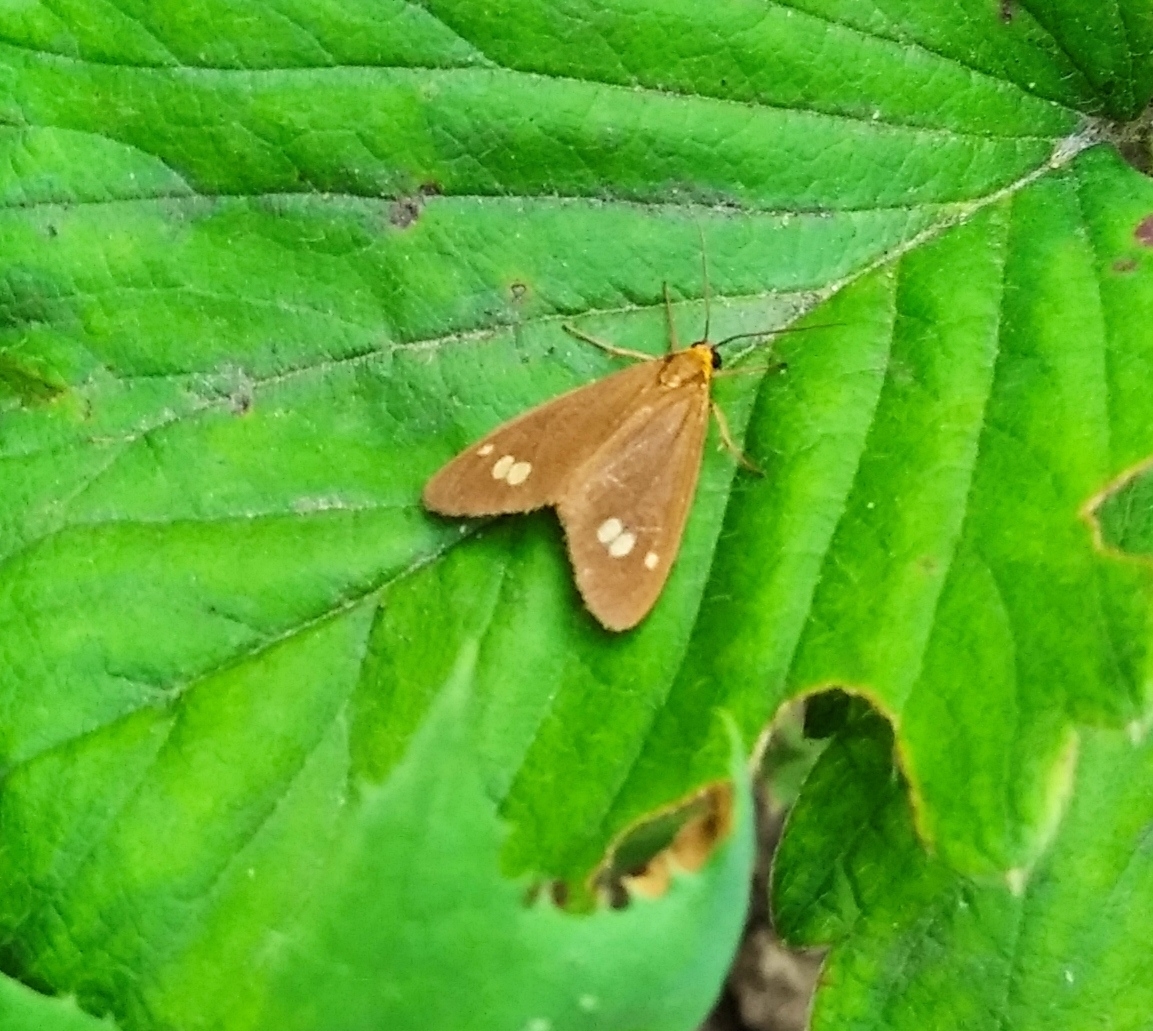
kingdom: Animalia
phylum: Arthropoda
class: Insecta
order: Lepidoptera
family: Erebidae
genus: Dysauxes
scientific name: Dysauxes ancilla
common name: The handmaid
